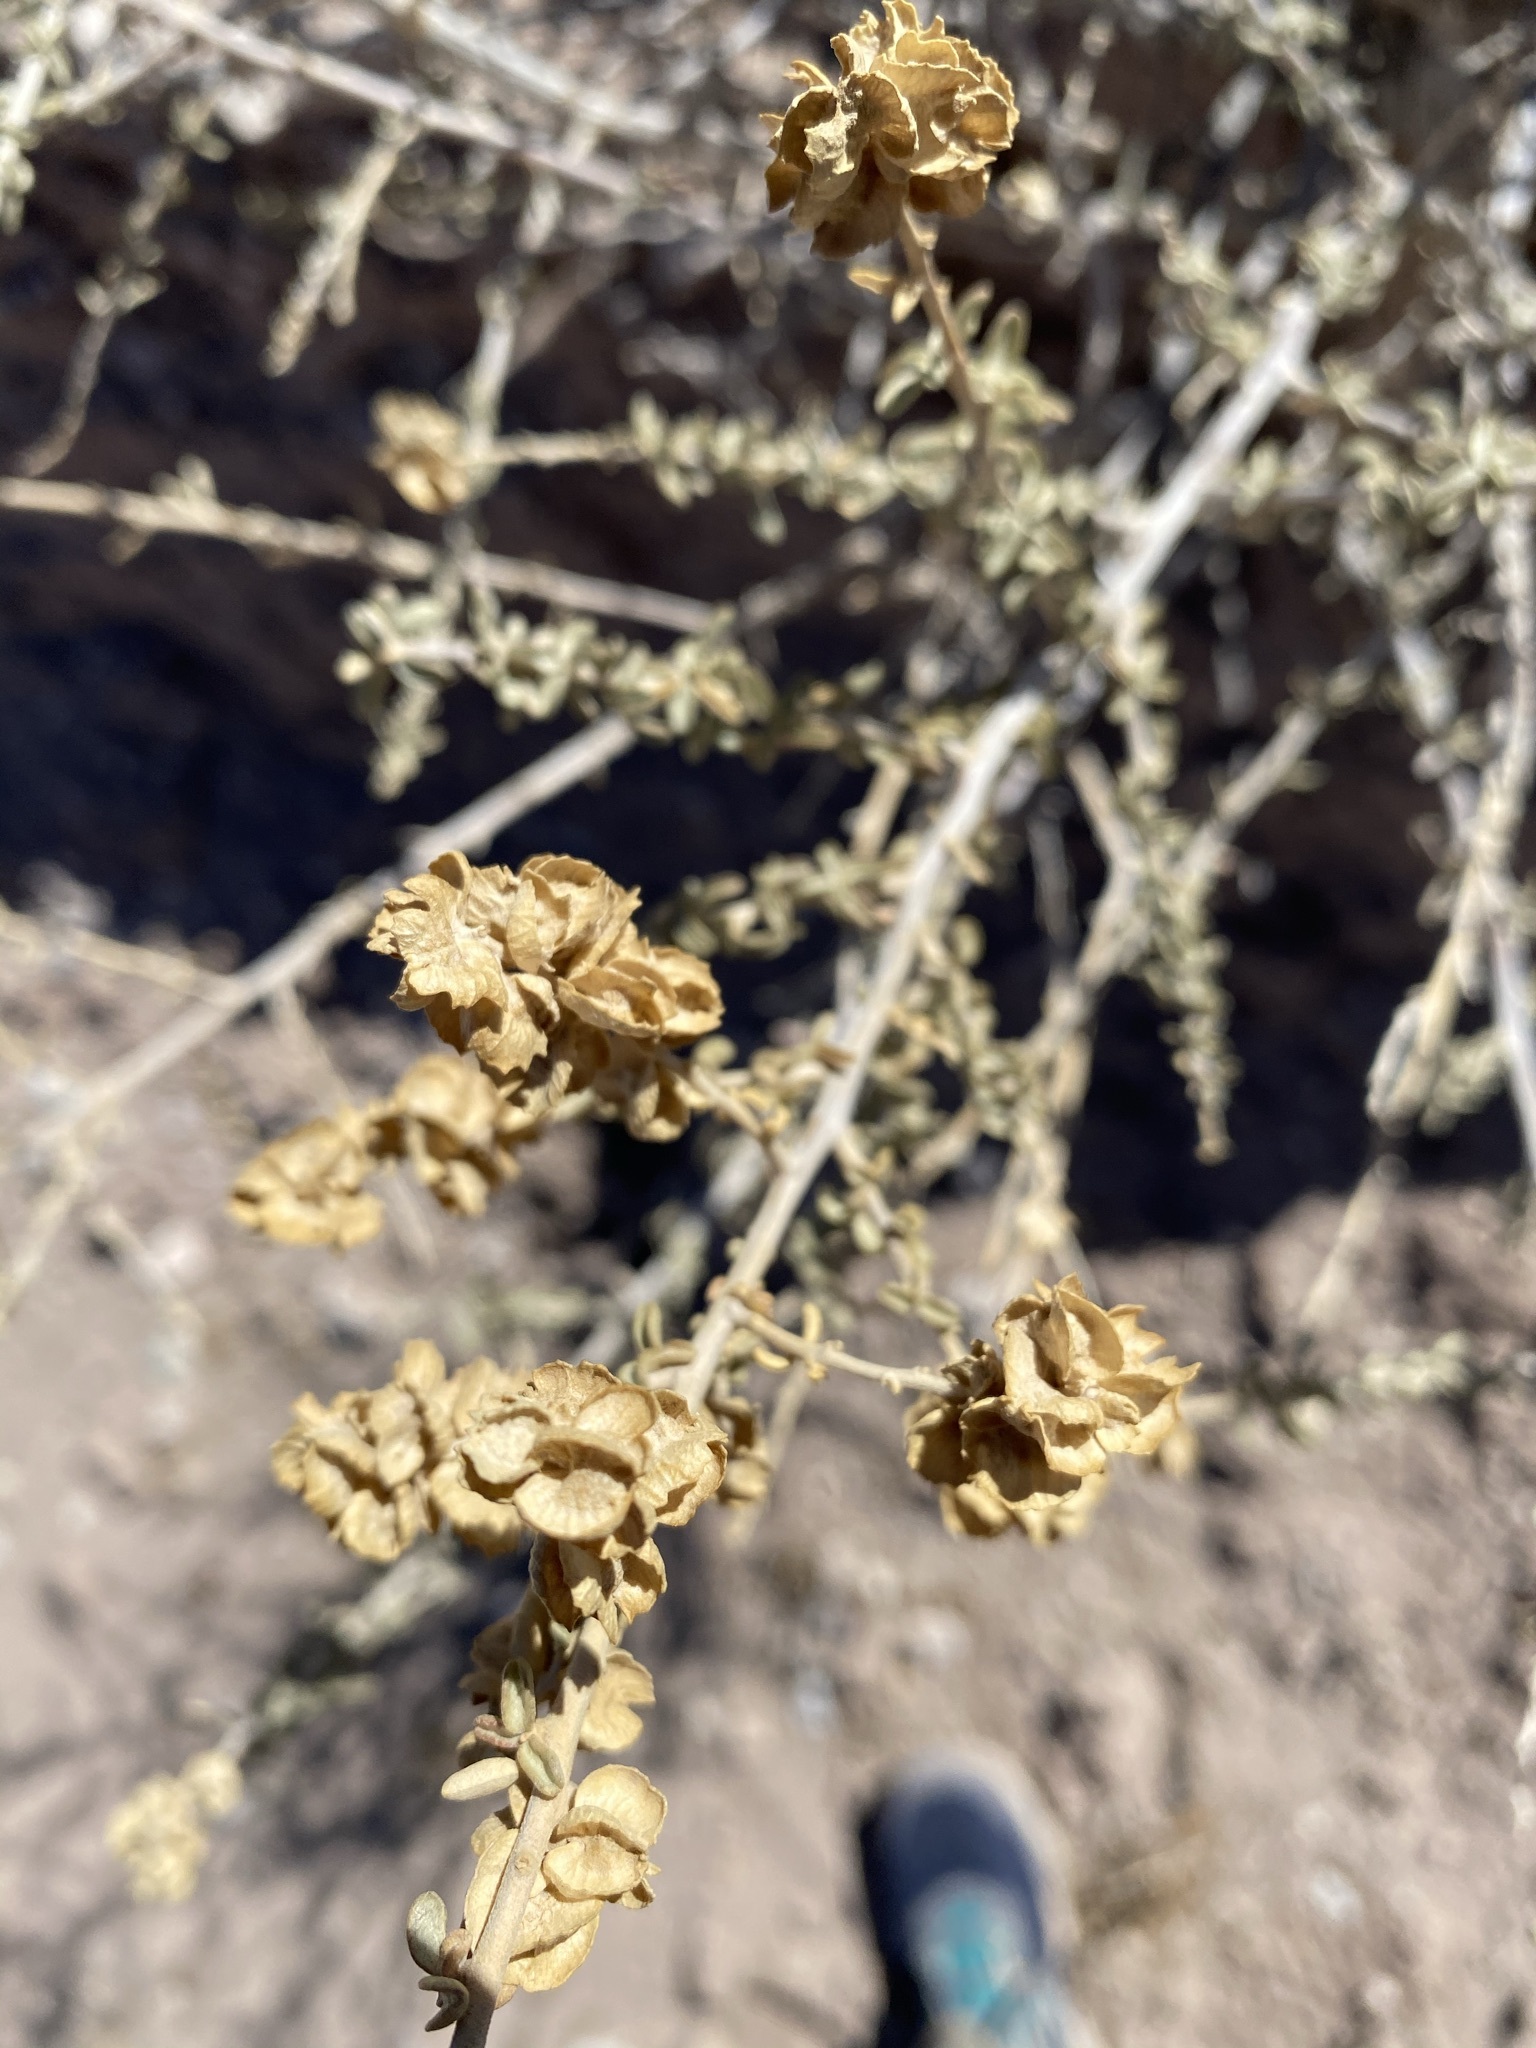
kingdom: Plantae
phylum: Tracheophyta
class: Magnoliopsida
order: Caryophyllales
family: Amaranthaceae
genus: Atriplex
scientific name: Atriplex canescens
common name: Four-wing saltbush
